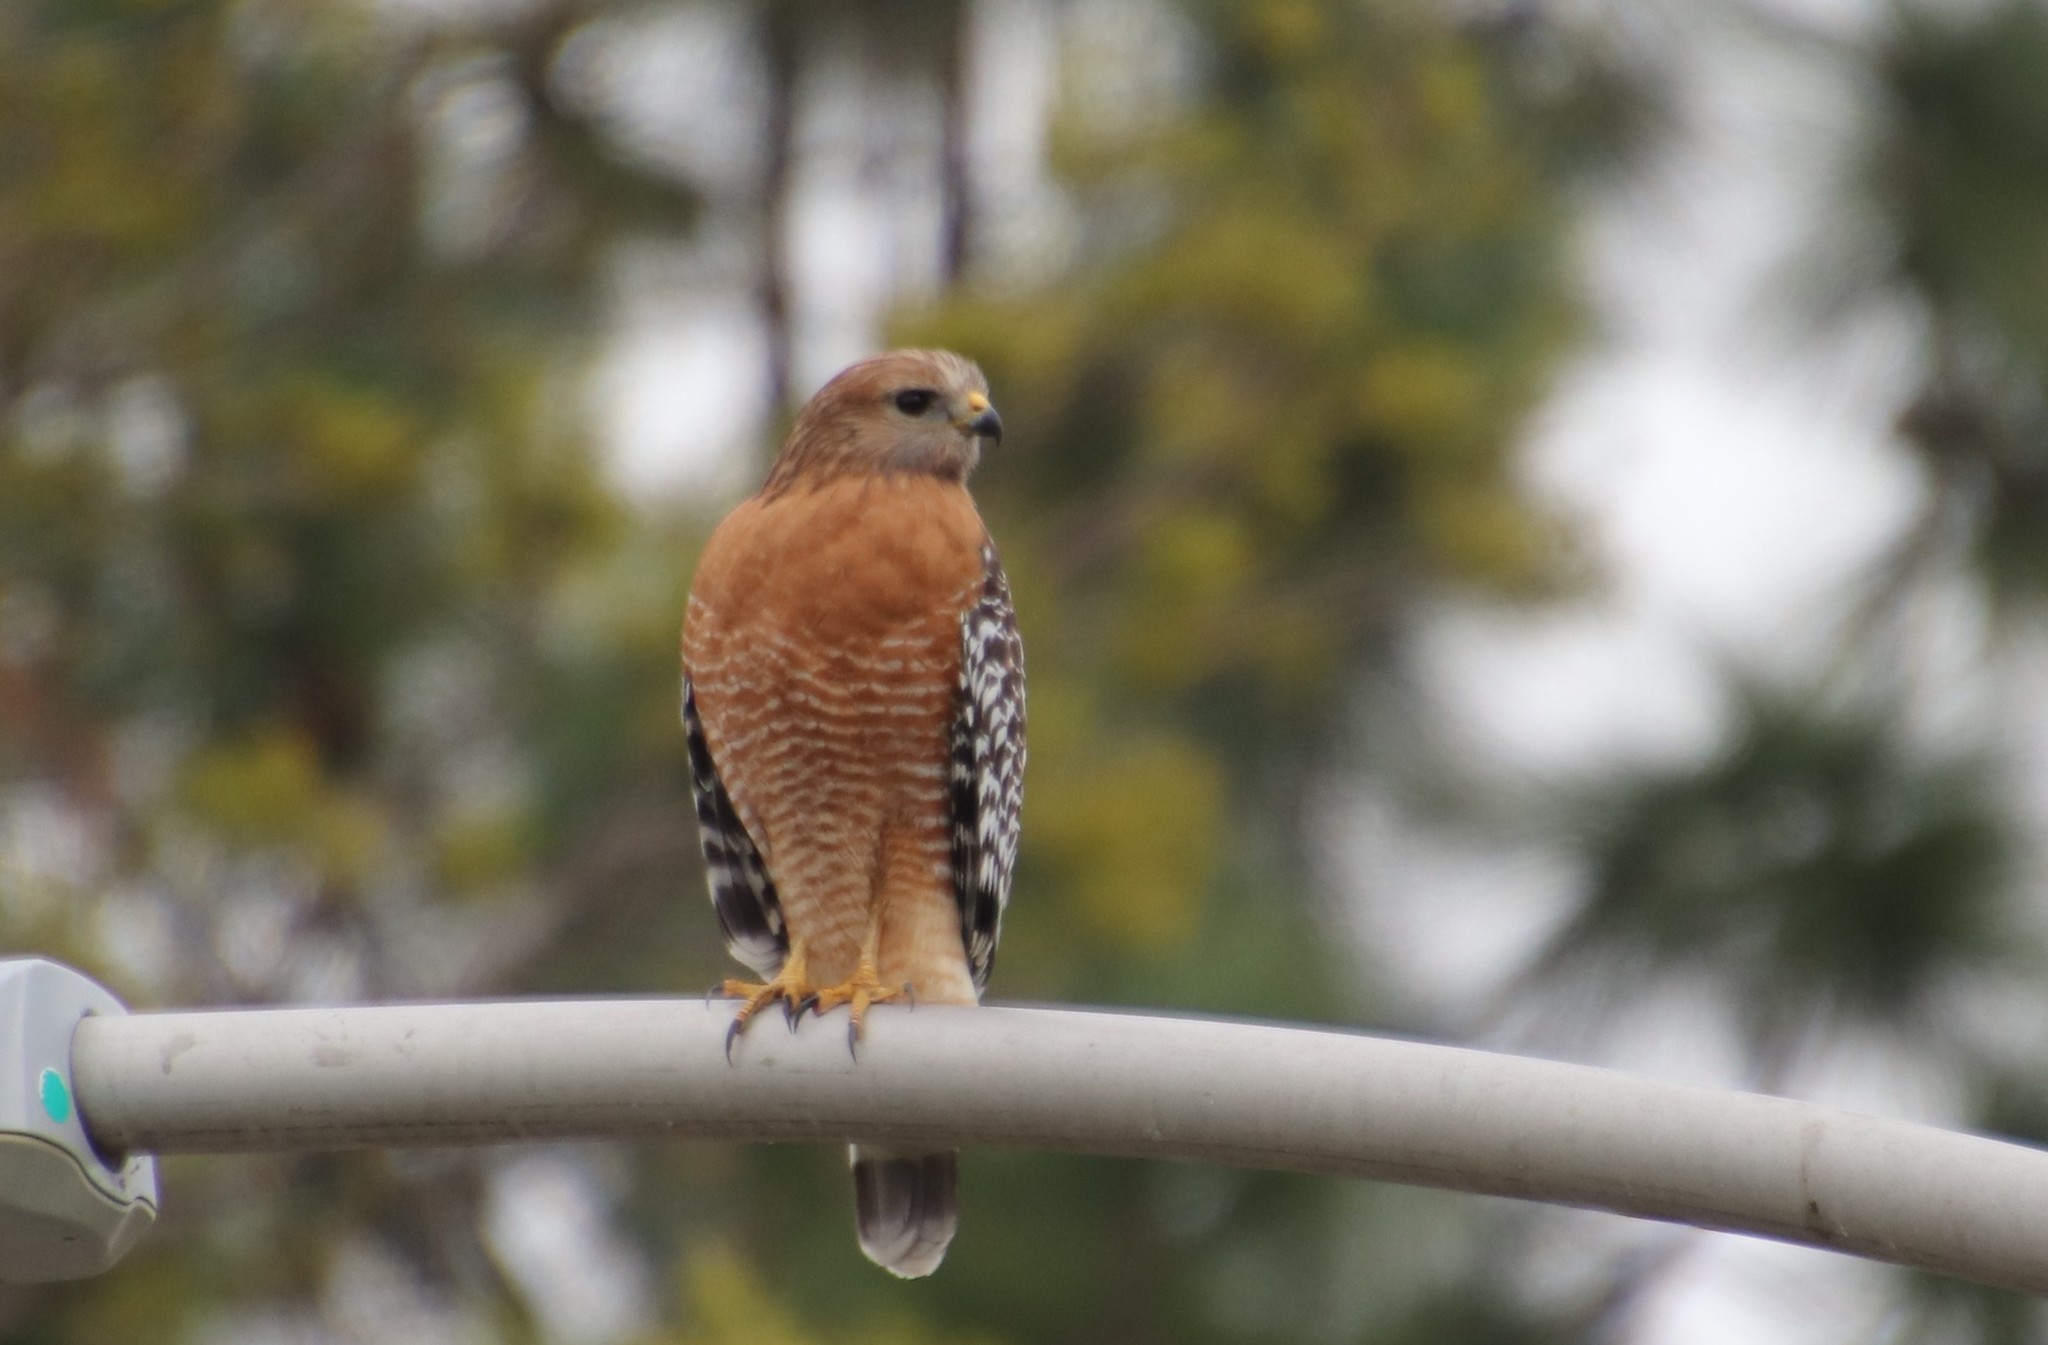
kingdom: Animalia
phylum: Chordata
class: Aves
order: Accipitriformes
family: Accipitridae
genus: Buteo
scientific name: Buteo lineatus
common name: Red-shouldered hawk
